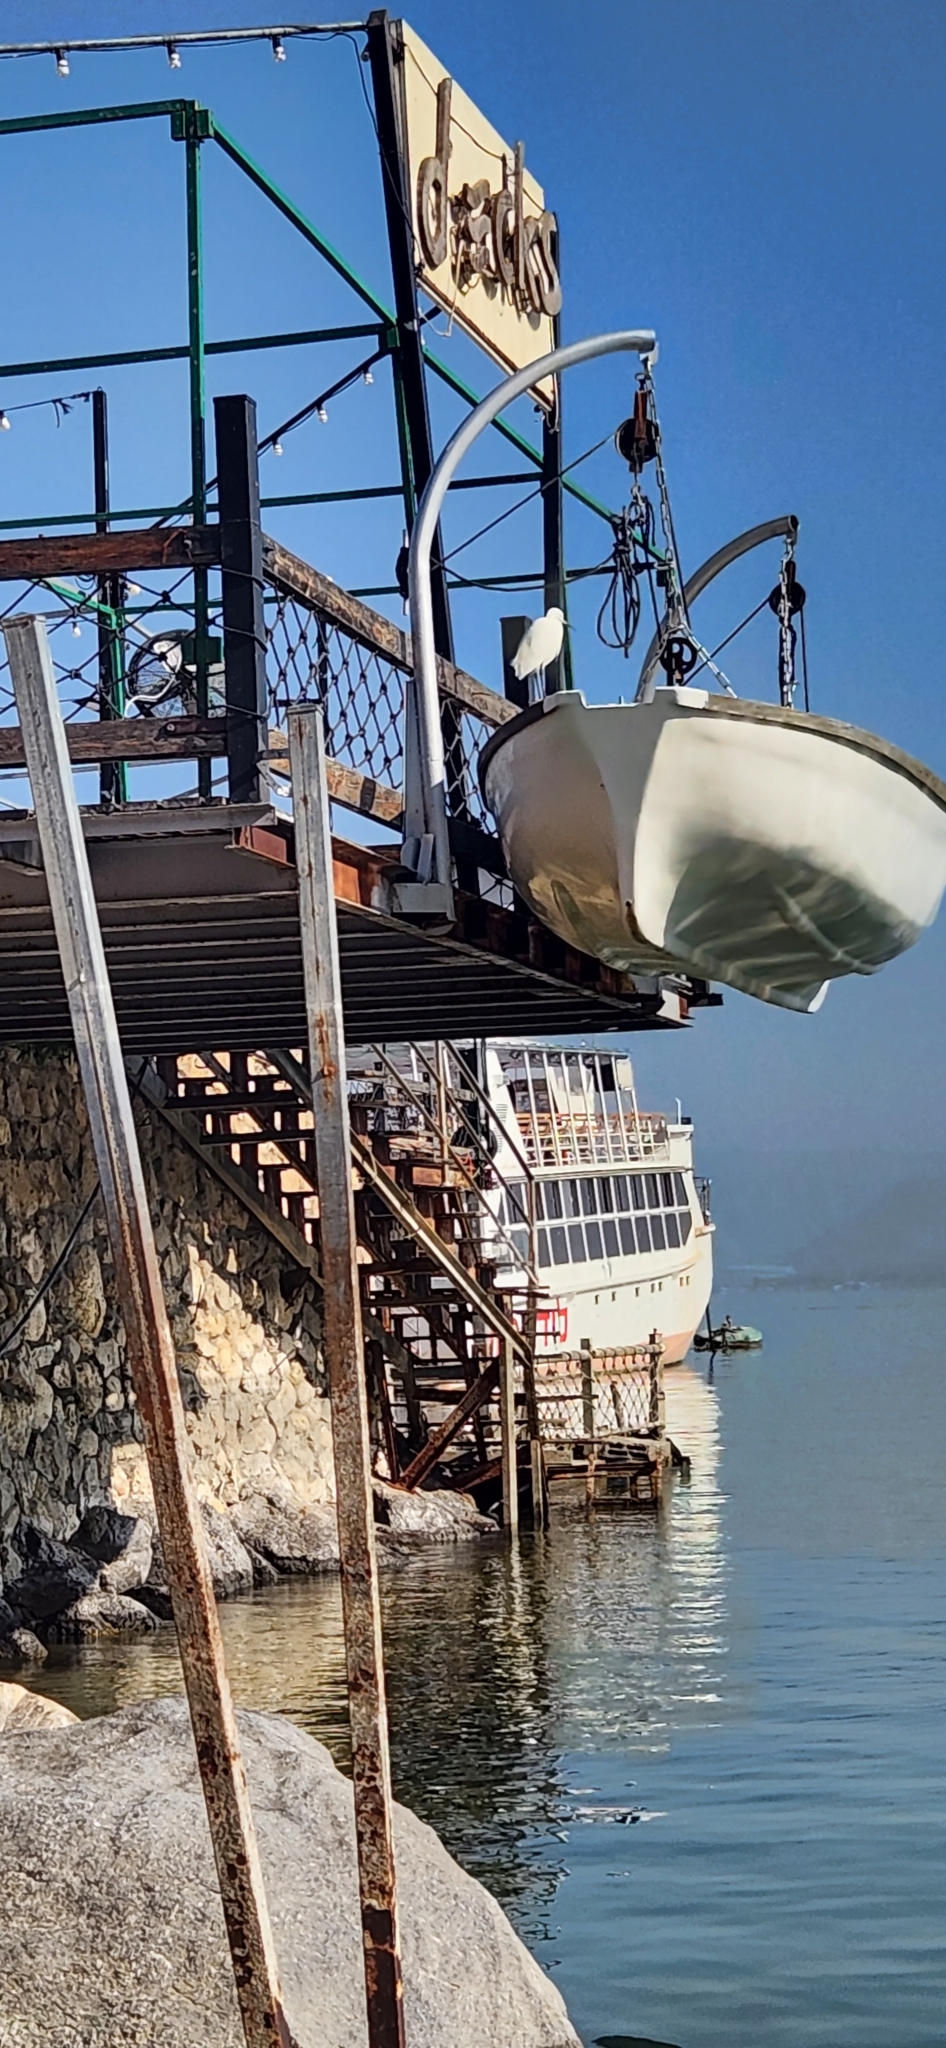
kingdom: Animalia
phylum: Chordata
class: Aves
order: Pelecaniformes
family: Ardeidae
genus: Egretta
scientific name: Egretta garzetta
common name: Little egret
